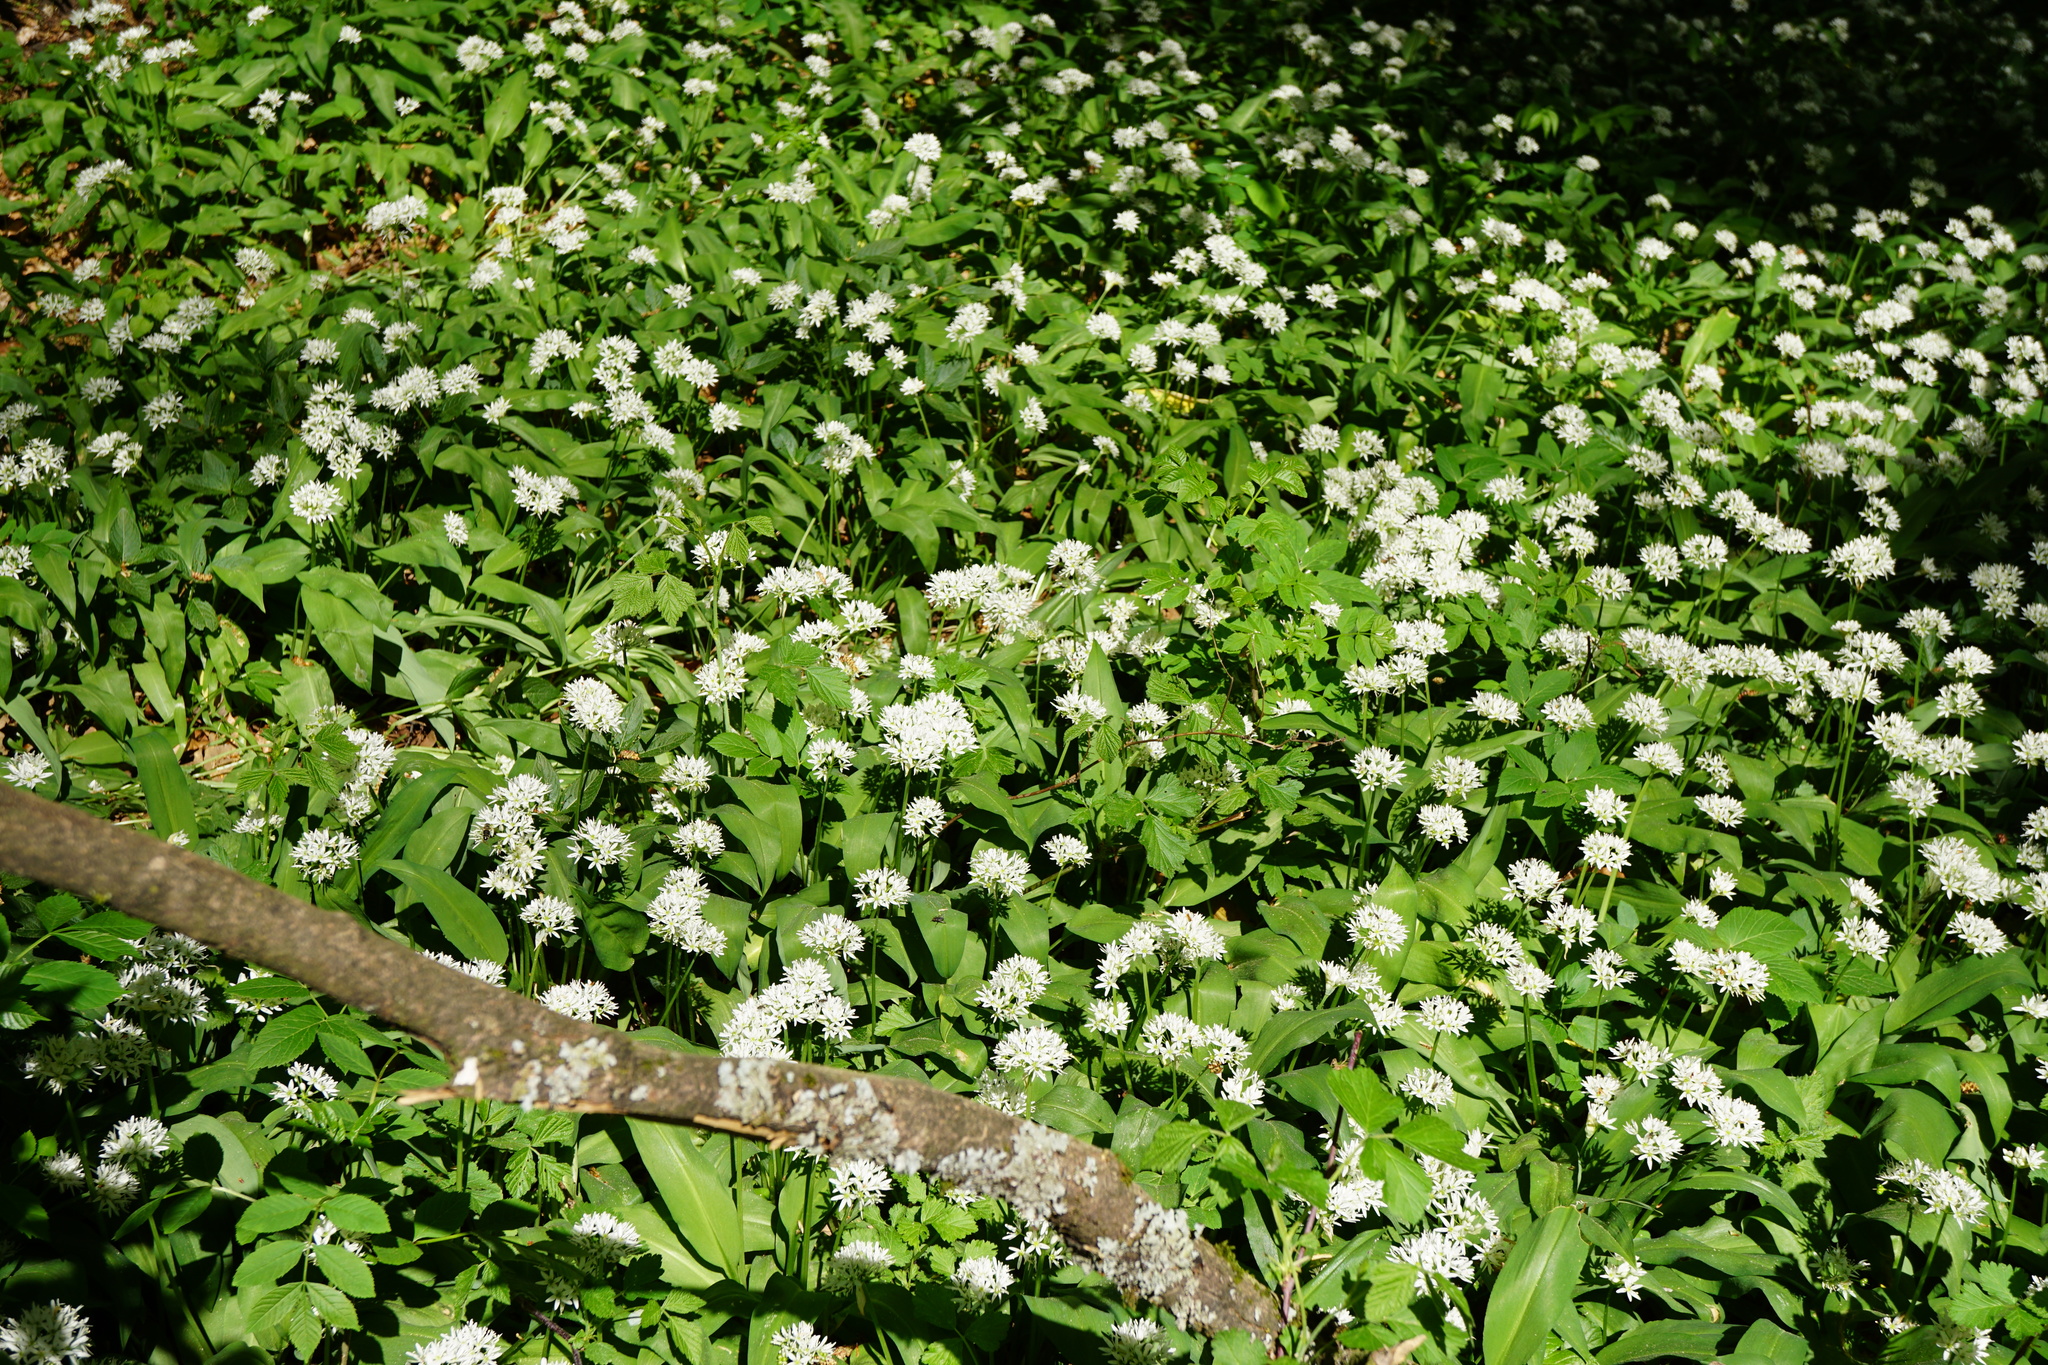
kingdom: Plantae
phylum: Tracheophyta
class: Liliopsida
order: Asparagales
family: Amaryllidaceae
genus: Allium
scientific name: Allium ursinum
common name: Ramsons
